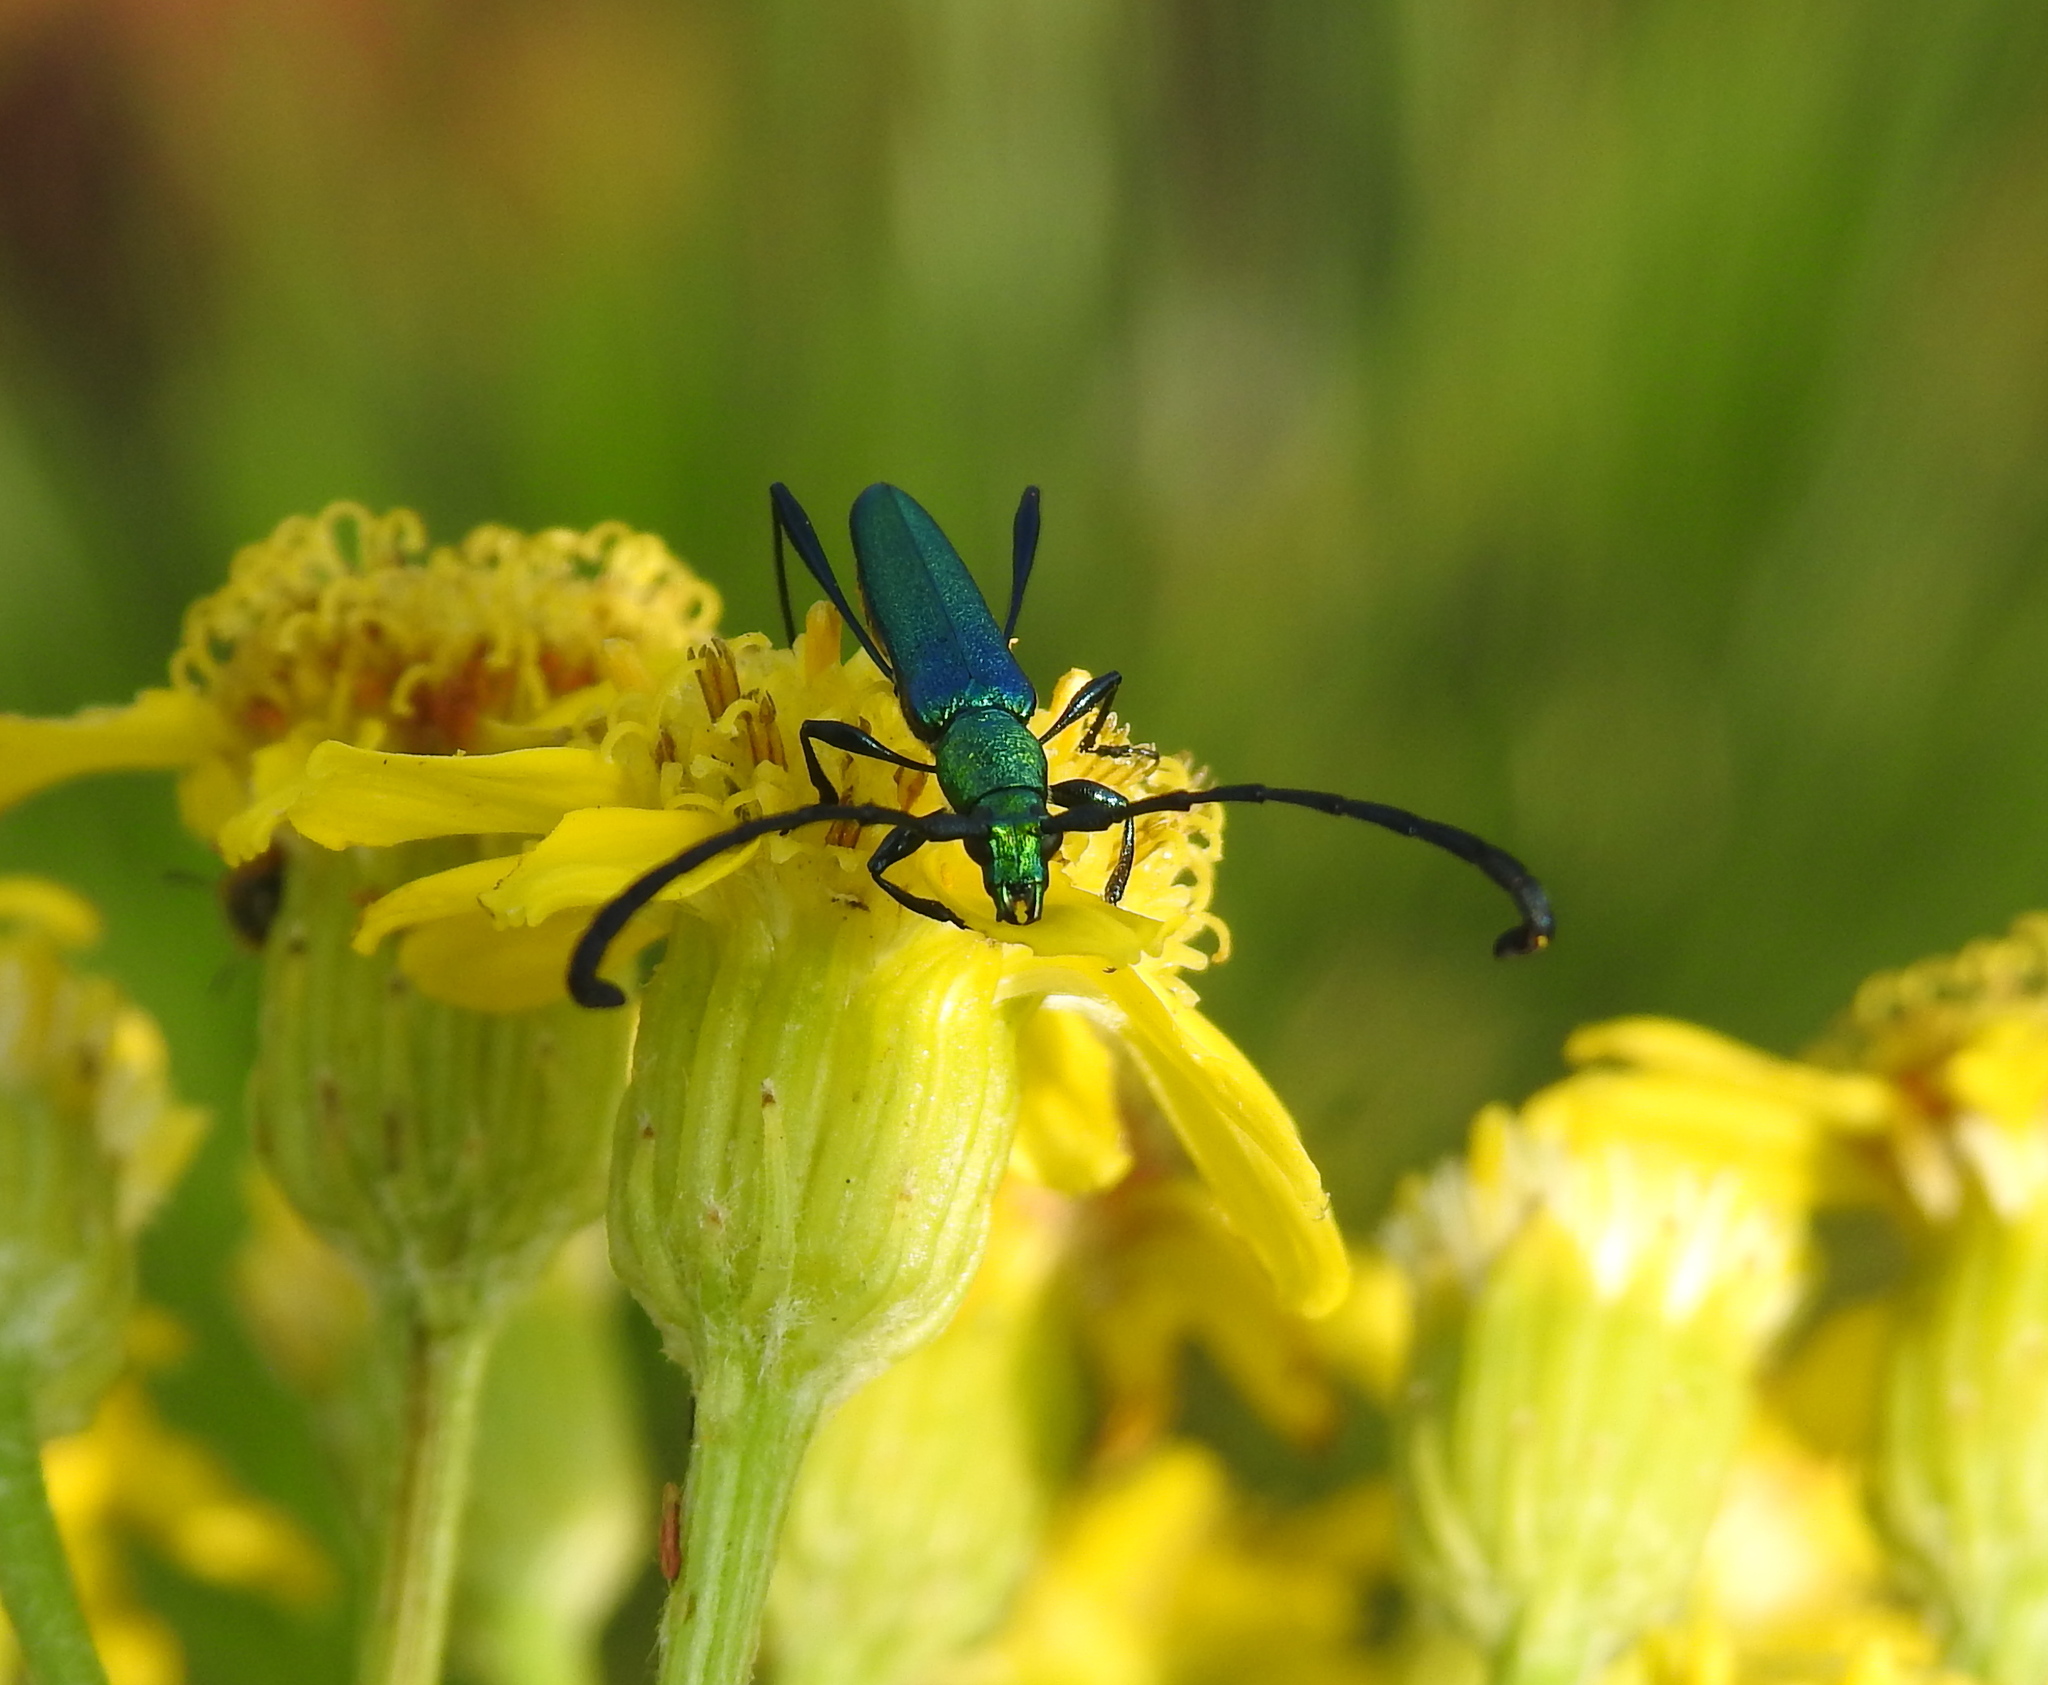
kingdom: Animalia
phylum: Arthropoda
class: Insecta
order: Coleoptera
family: Cerambycidae
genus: Hypocrites
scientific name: Hypocrites
